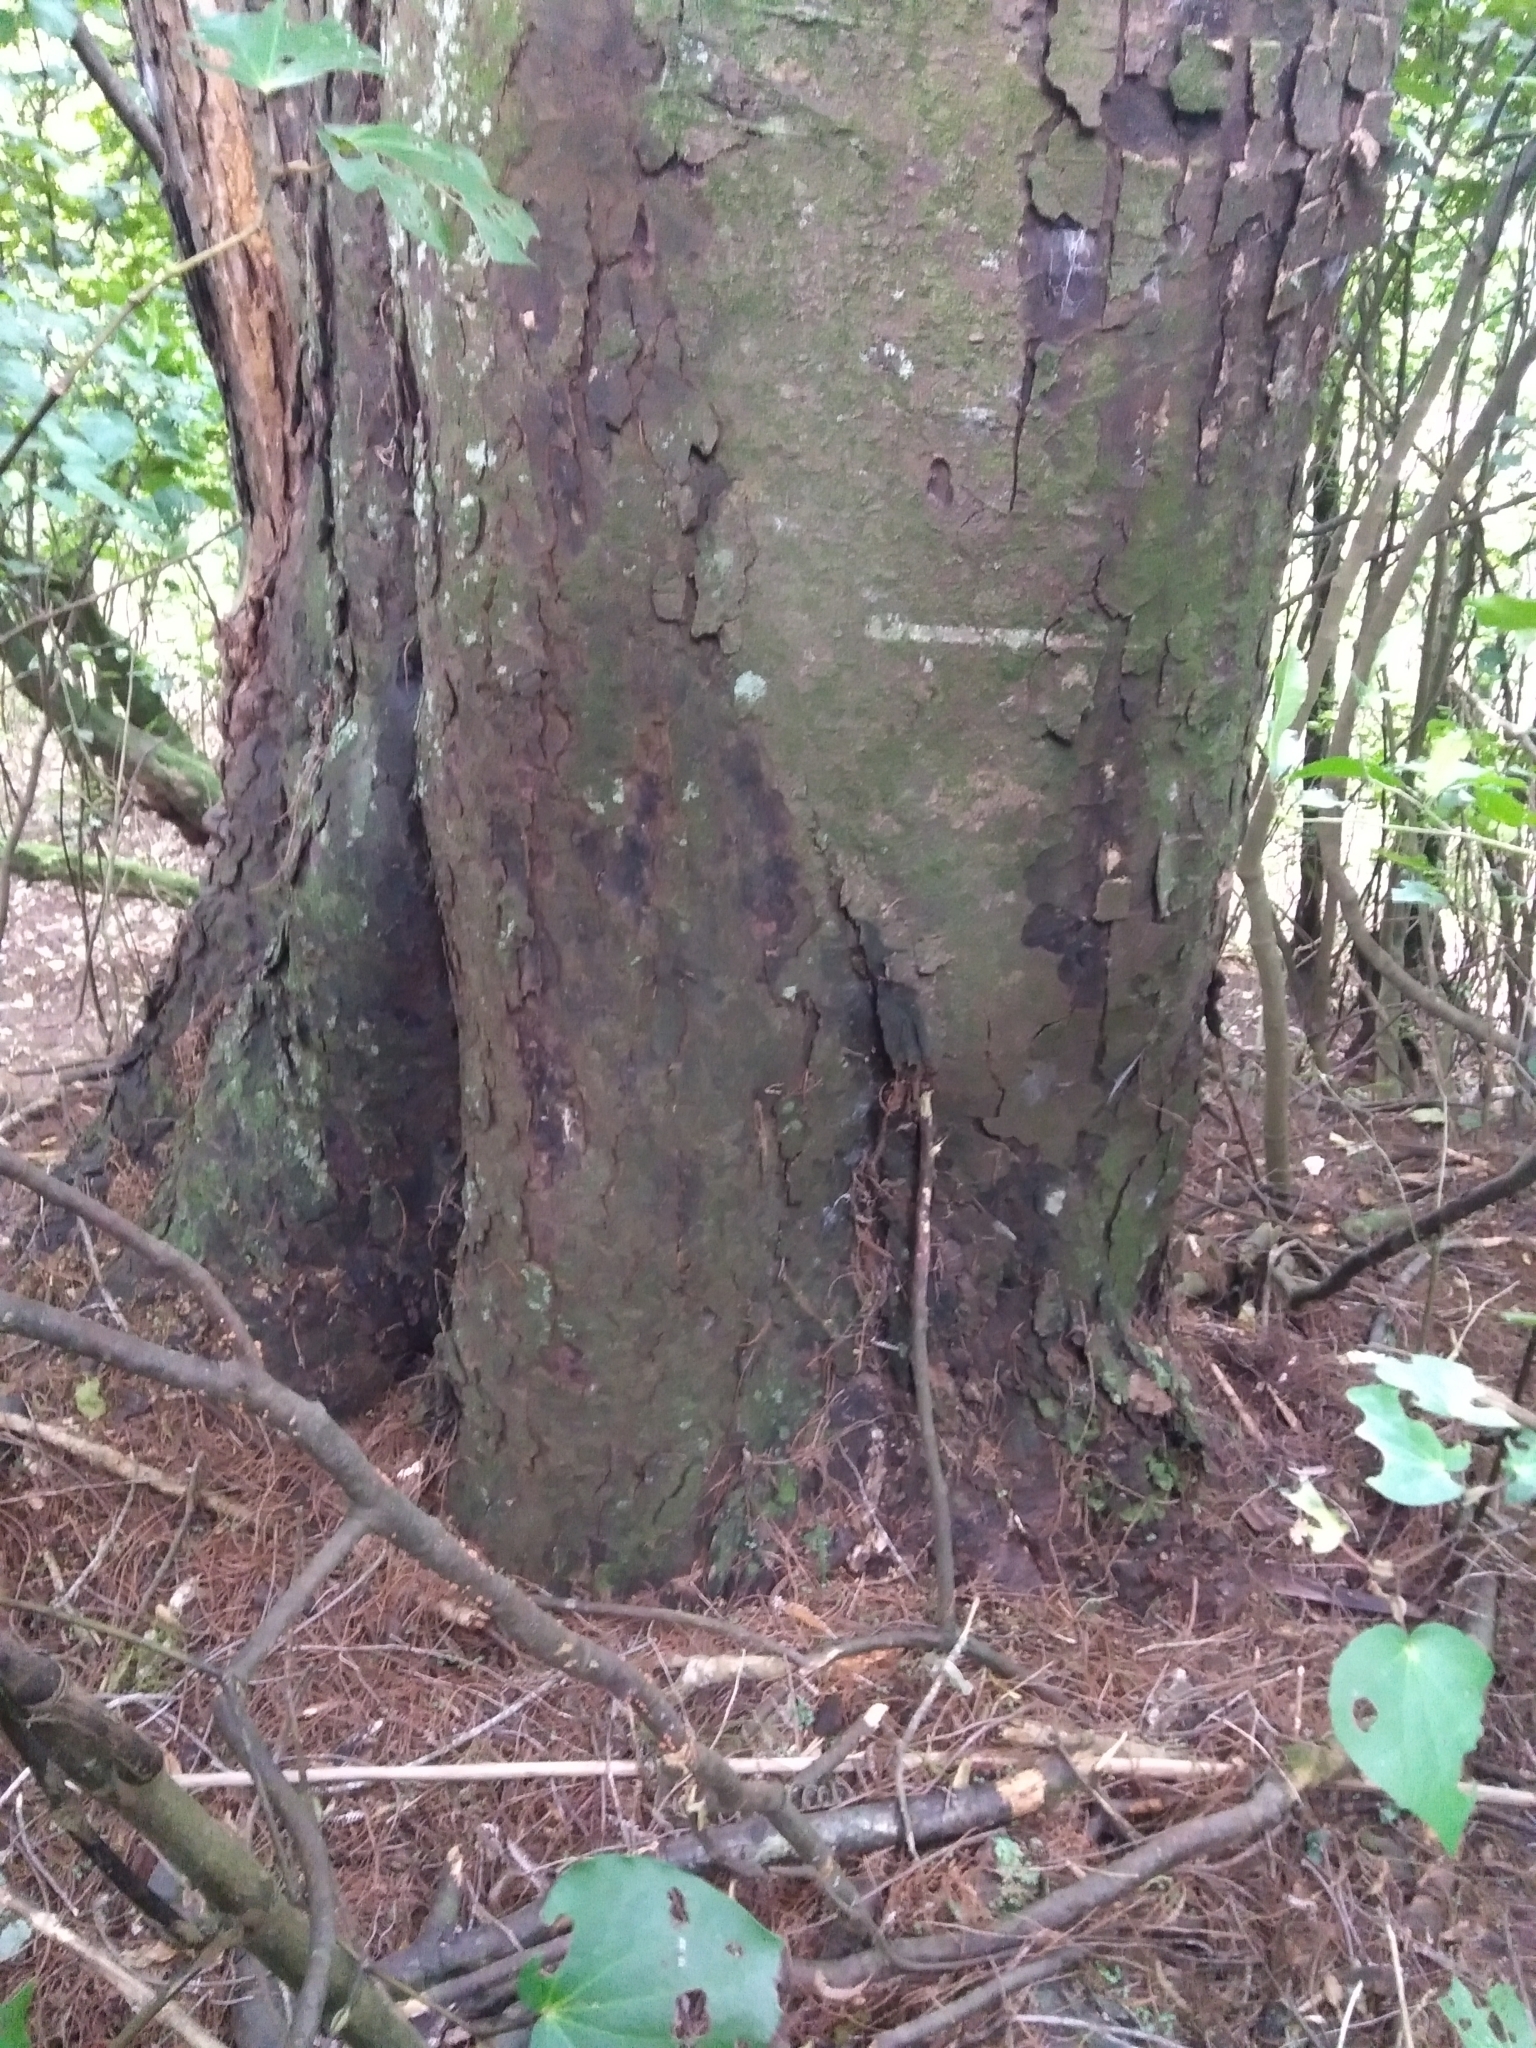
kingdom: Plantae
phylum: Tracheophyta
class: Pinopsida
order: Pinales
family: Podocarpaceae
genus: Dacrycarpus
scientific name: Dacrycarpus dacrydioides
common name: White pine
